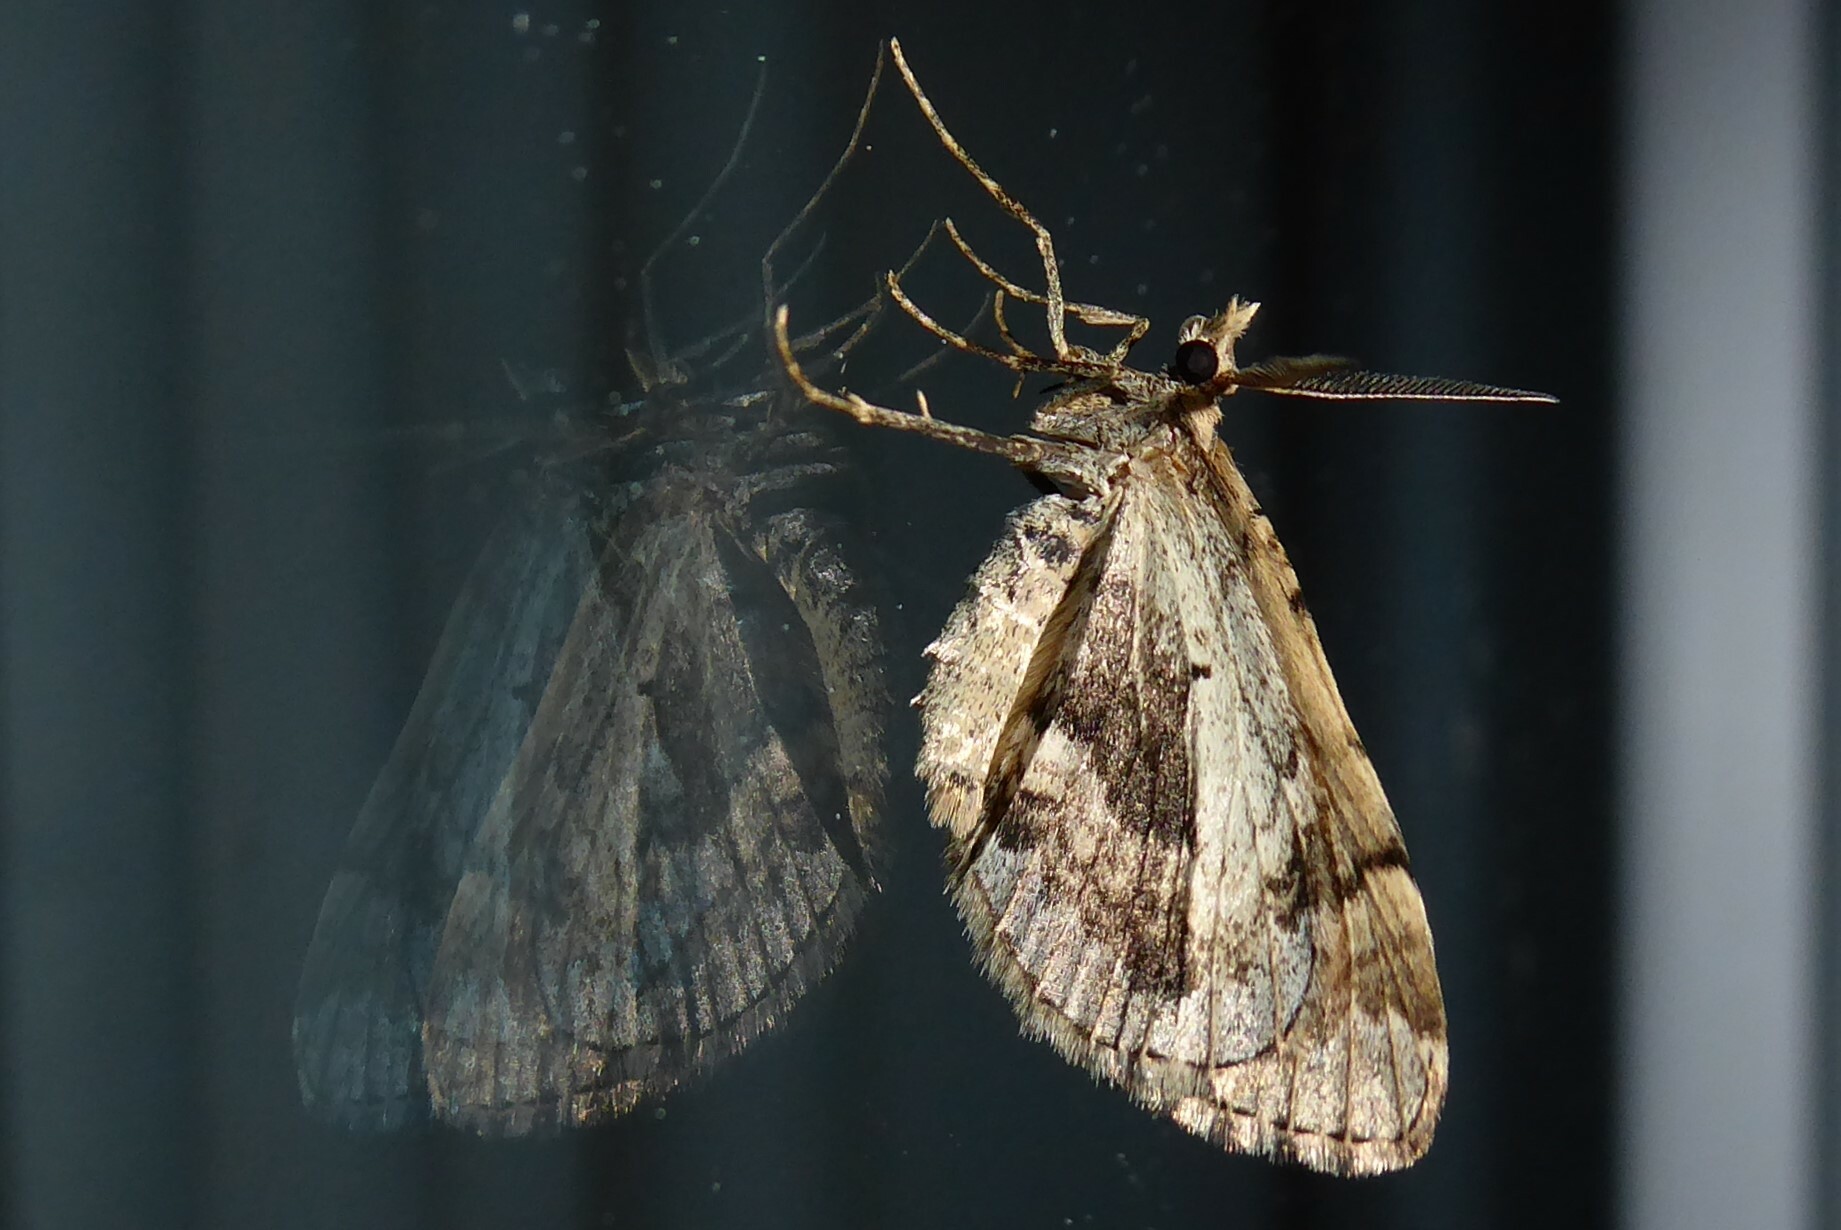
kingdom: Animalia
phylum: Arthropoda
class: Insecta
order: Lepidoptera
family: Geometridae
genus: Asaphodes
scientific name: Asaphodes aegrota
